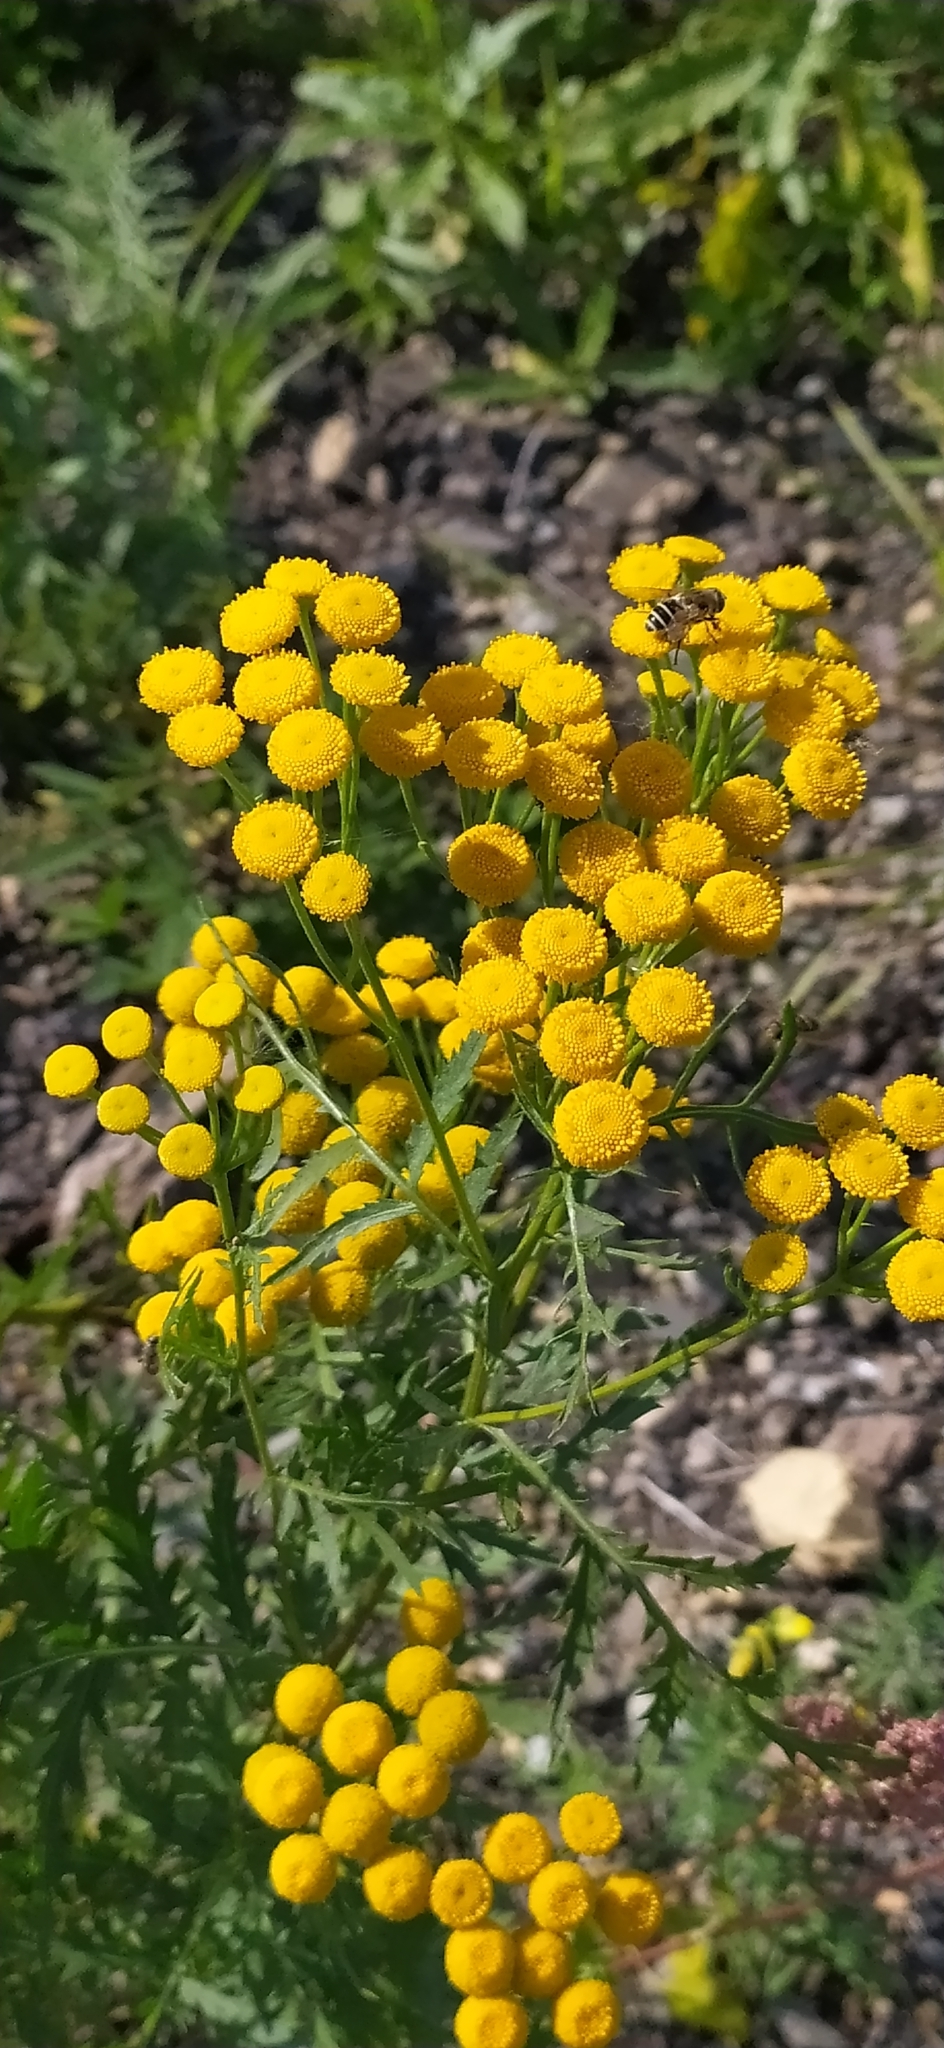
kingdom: Plantae
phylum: Tracheophyta
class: Magnoliopsida
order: Asterales
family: Asteraceae
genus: Tanacetum
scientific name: Tanacetum vulgare
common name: Common tansy
